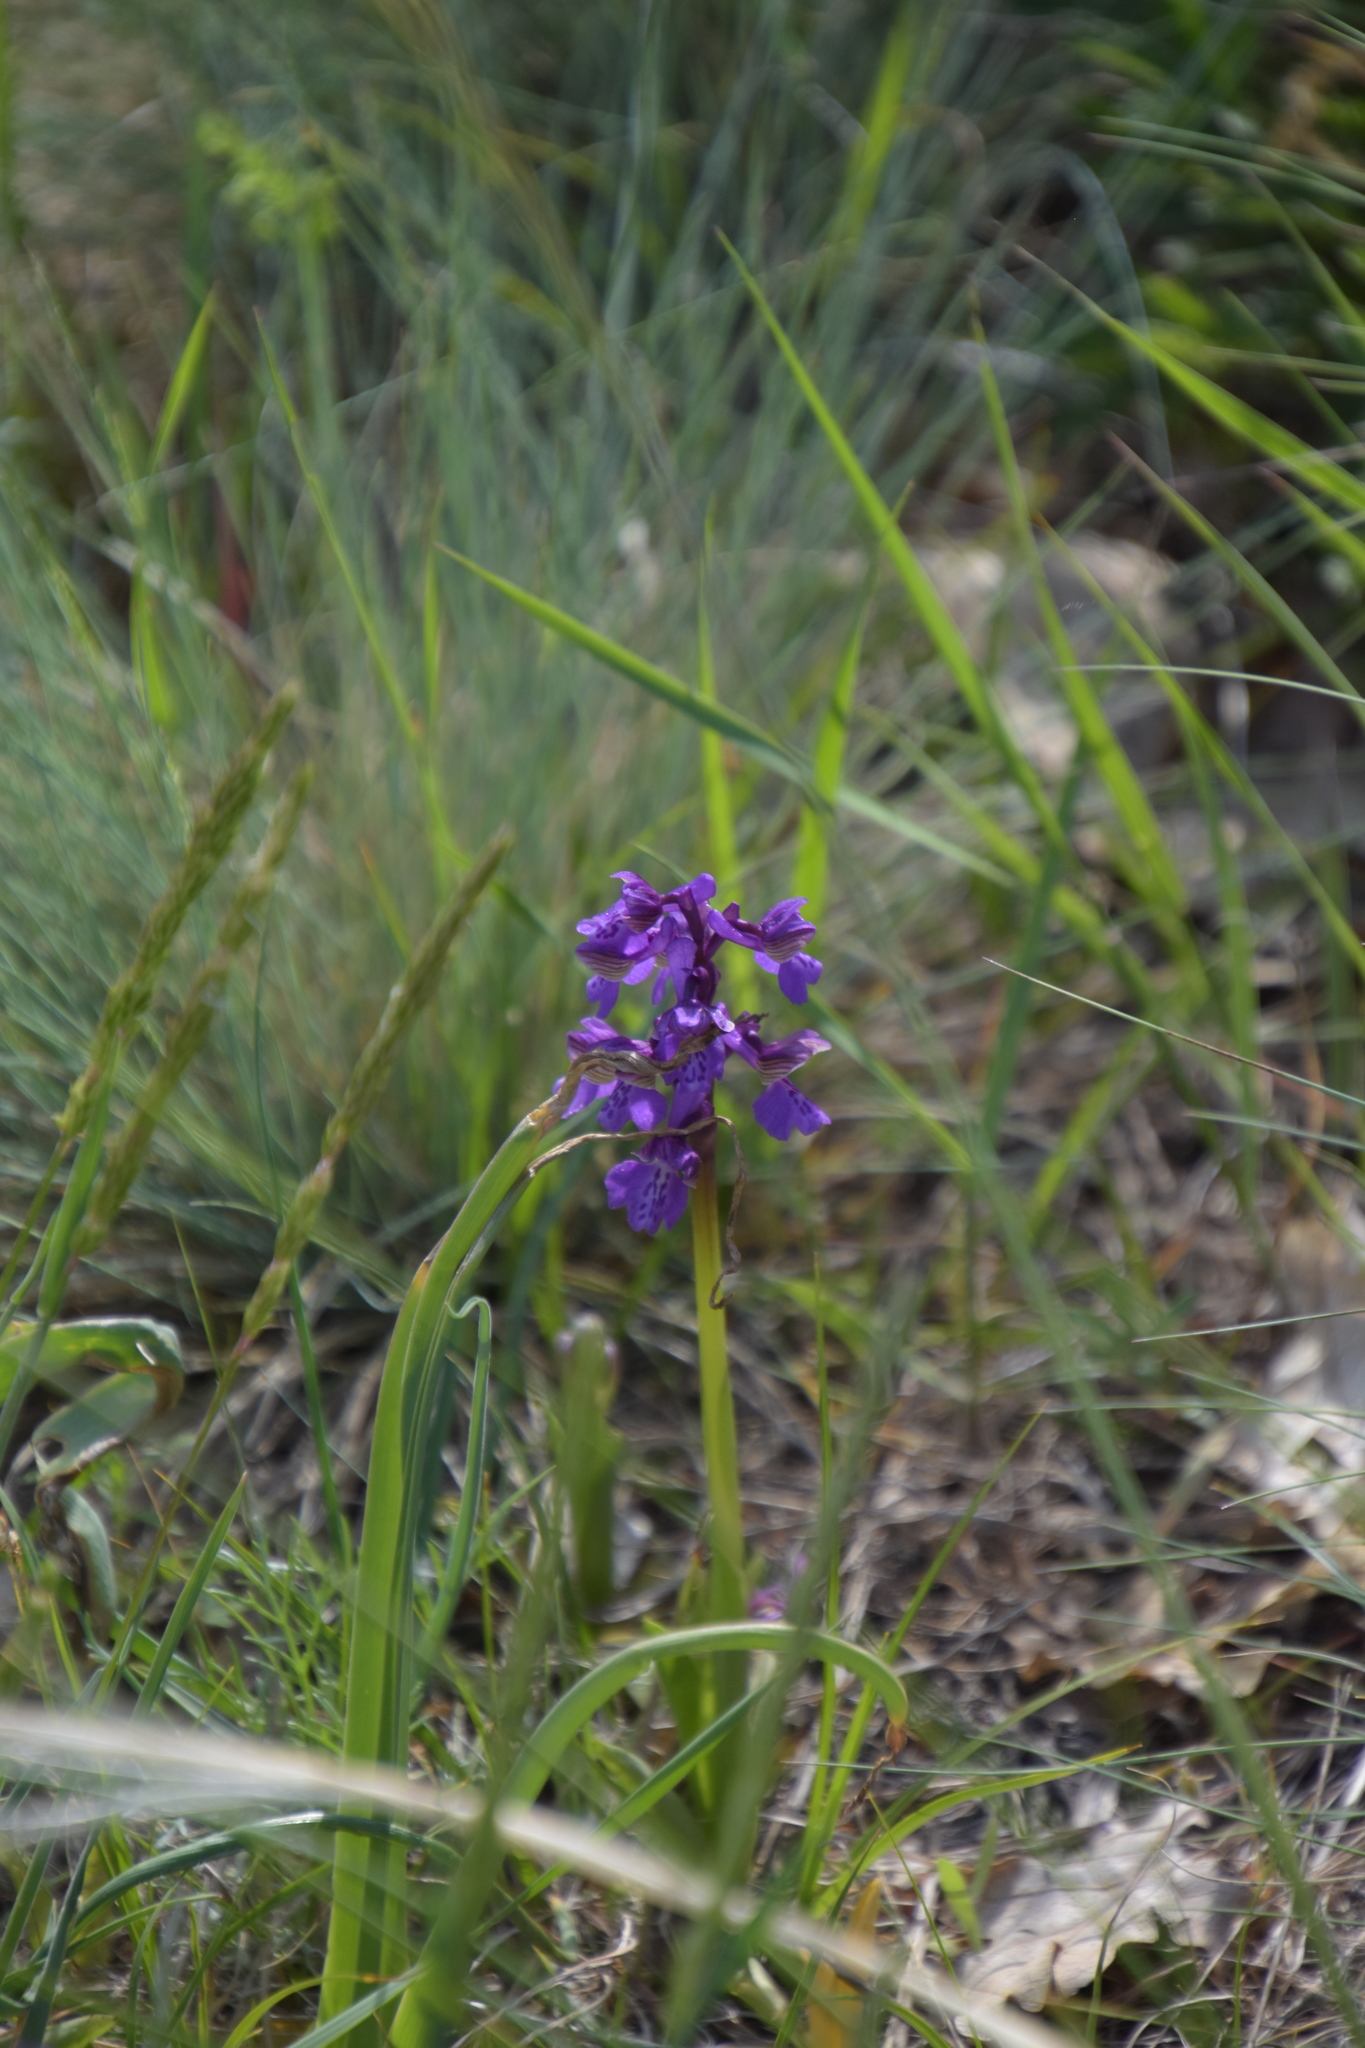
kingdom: Plantae
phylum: Tracheophyta
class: Liliopsida
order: Asparagales
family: Orchidaceae
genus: Anacamptis
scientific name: Anacamptis morio
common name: Green-winged orchid
